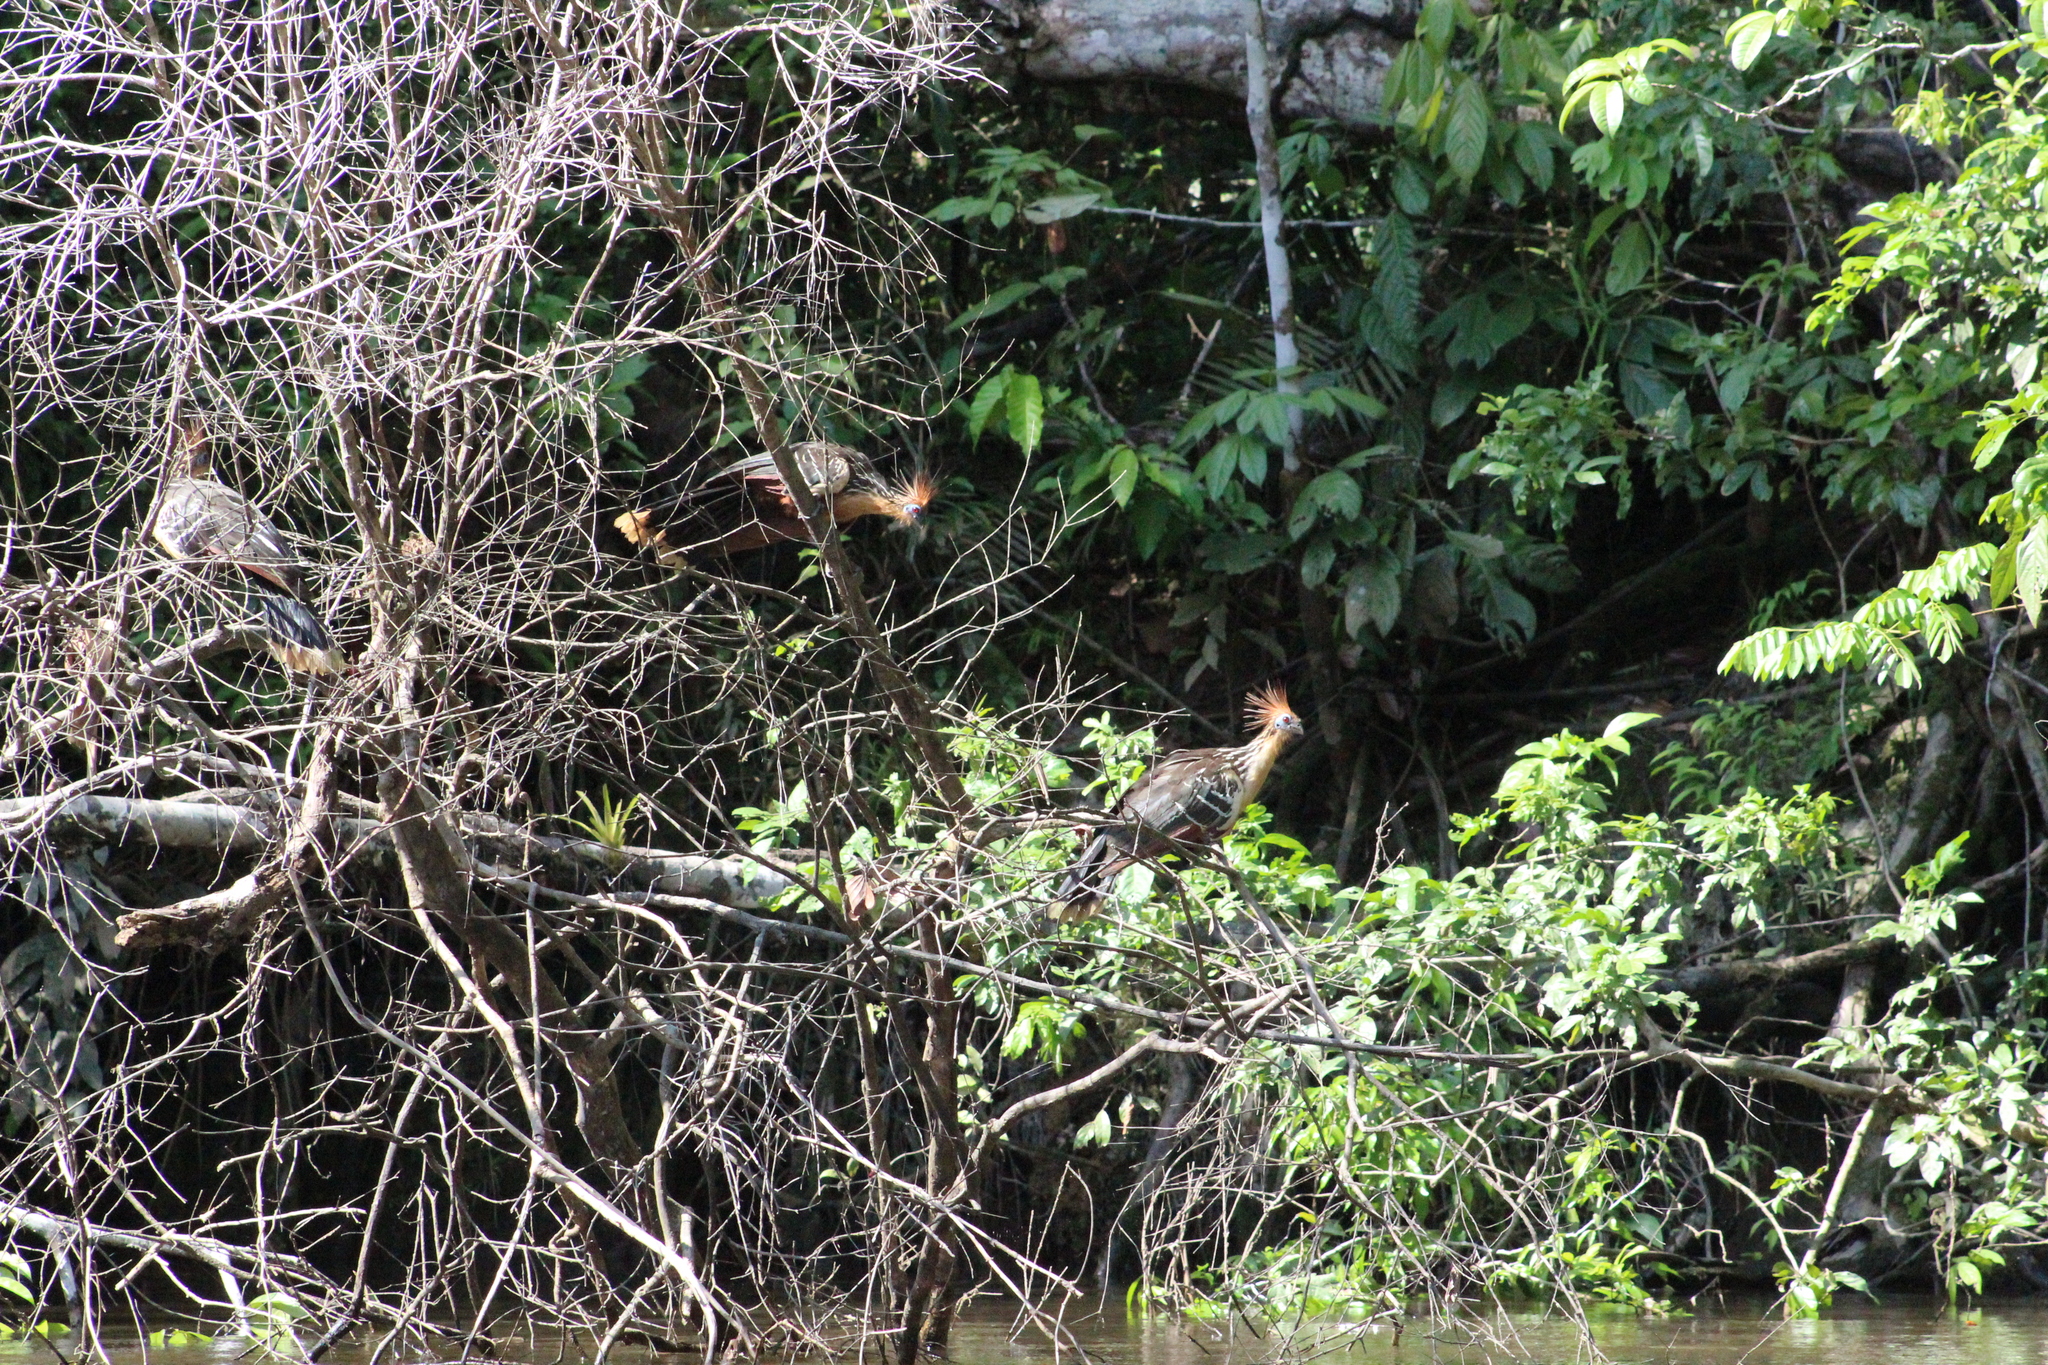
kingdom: Animalia
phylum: Chordata
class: Aves
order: Opisthocomiformes
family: Opisthocomidae
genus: Opisthocomus
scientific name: Opisthocomus hoazin
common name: Hoatzin
